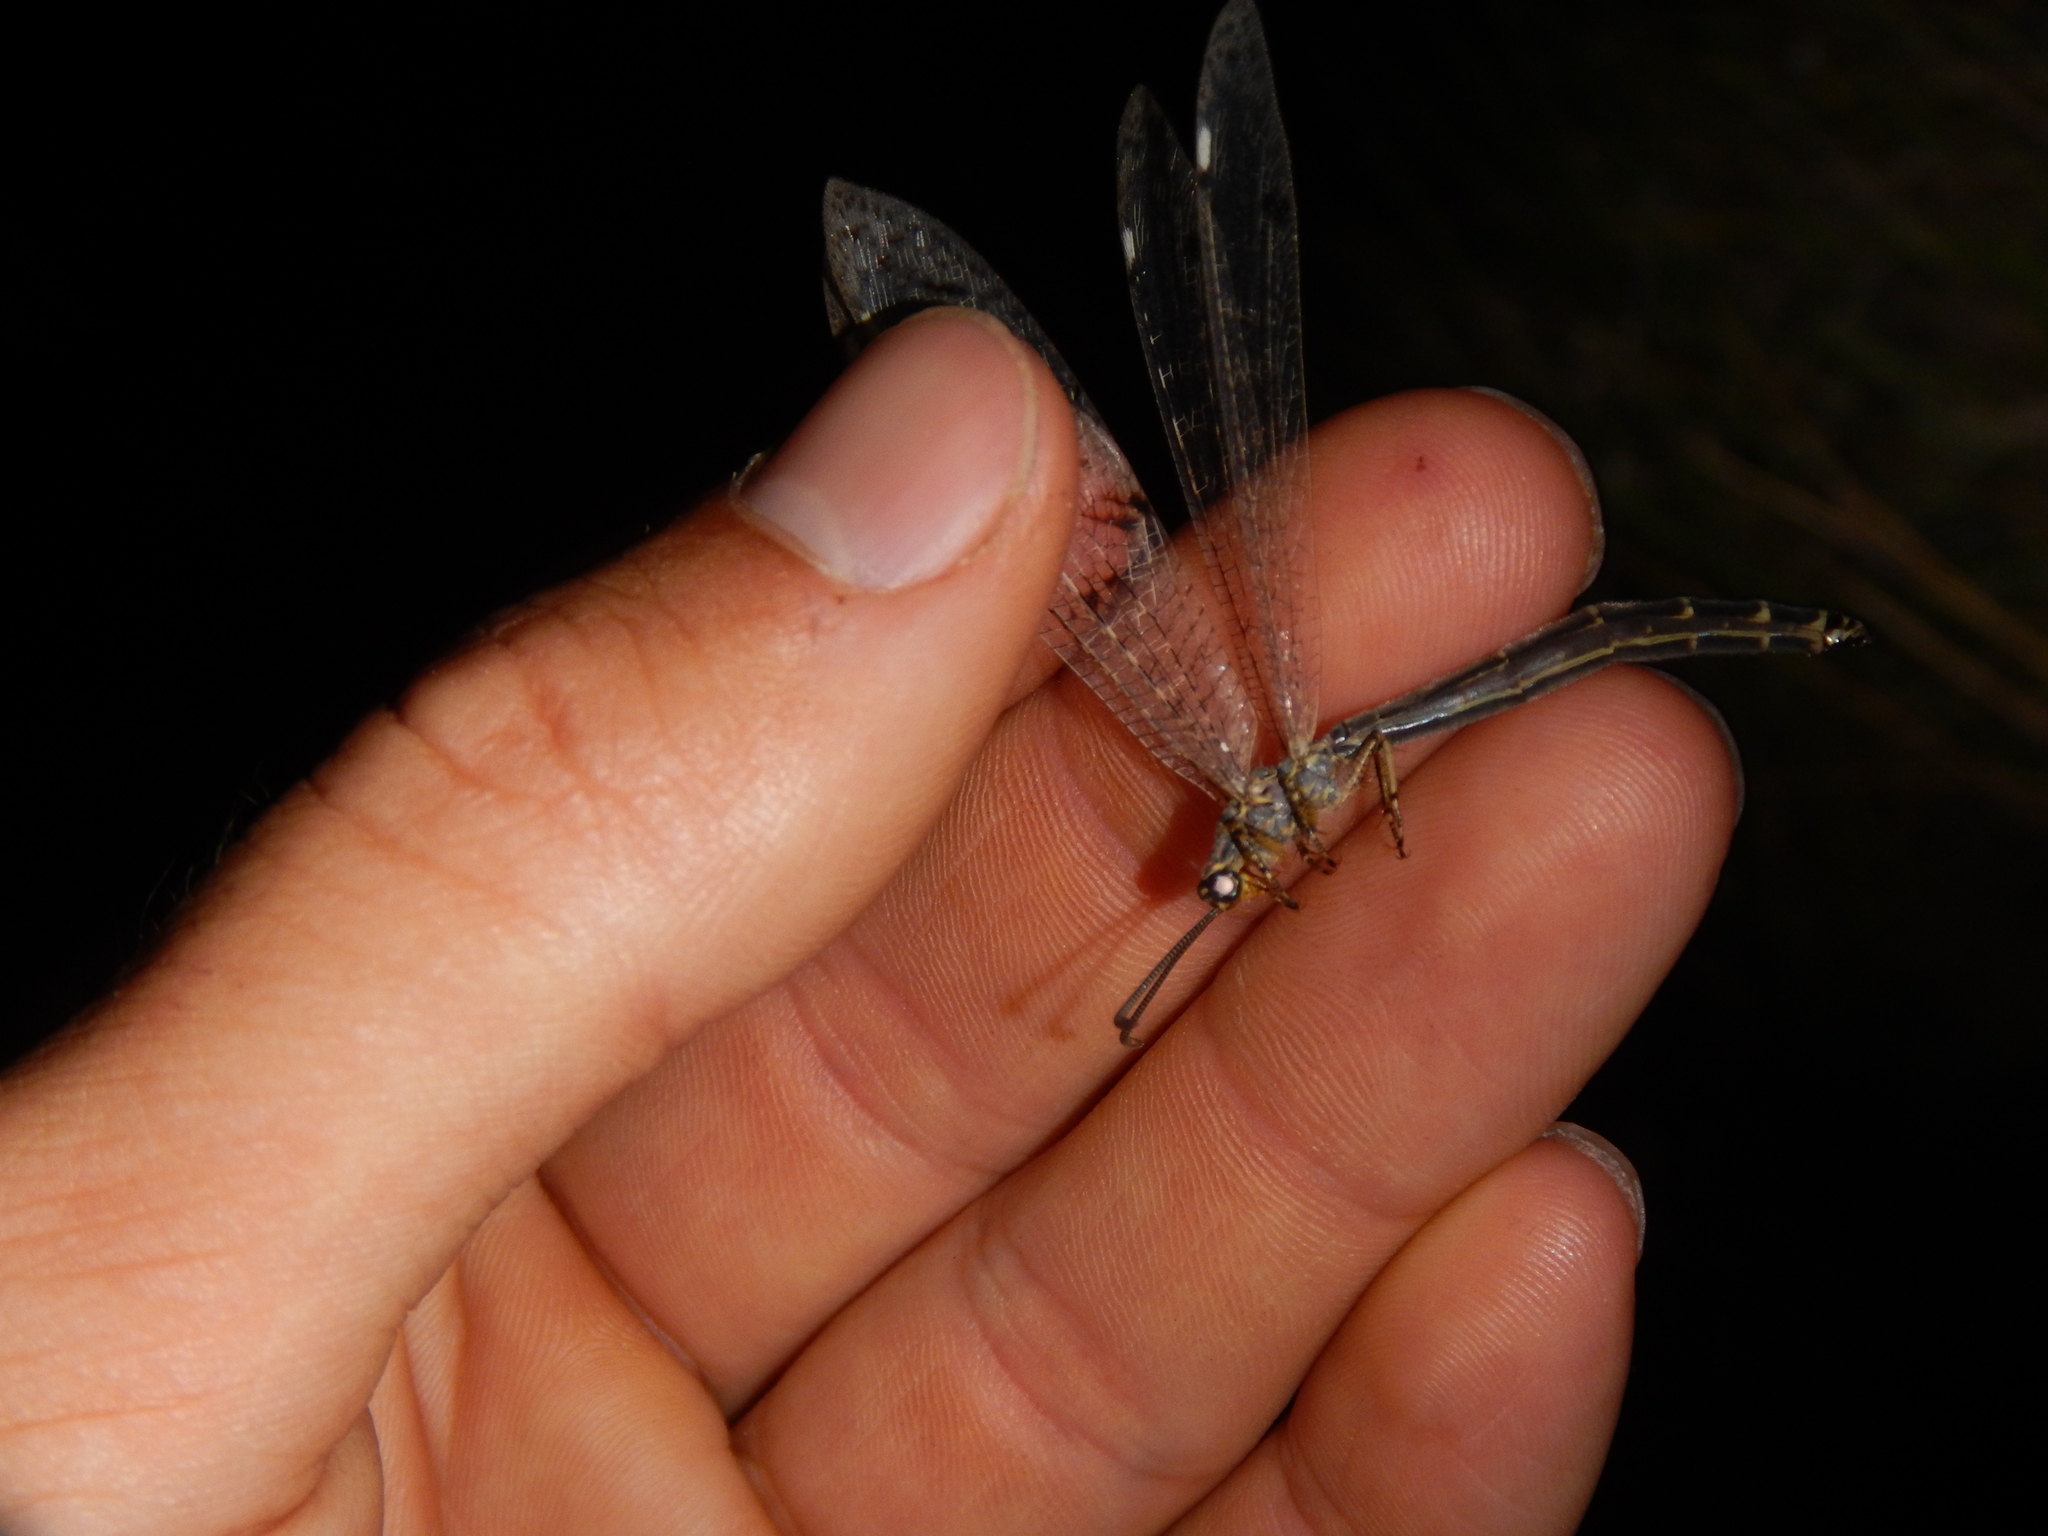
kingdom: Animalia
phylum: Arthropoda
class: Insecta
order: Neuroptera
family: Myrmeleontidae
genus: Distoleon
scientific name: Distoleon tetragrammicus
